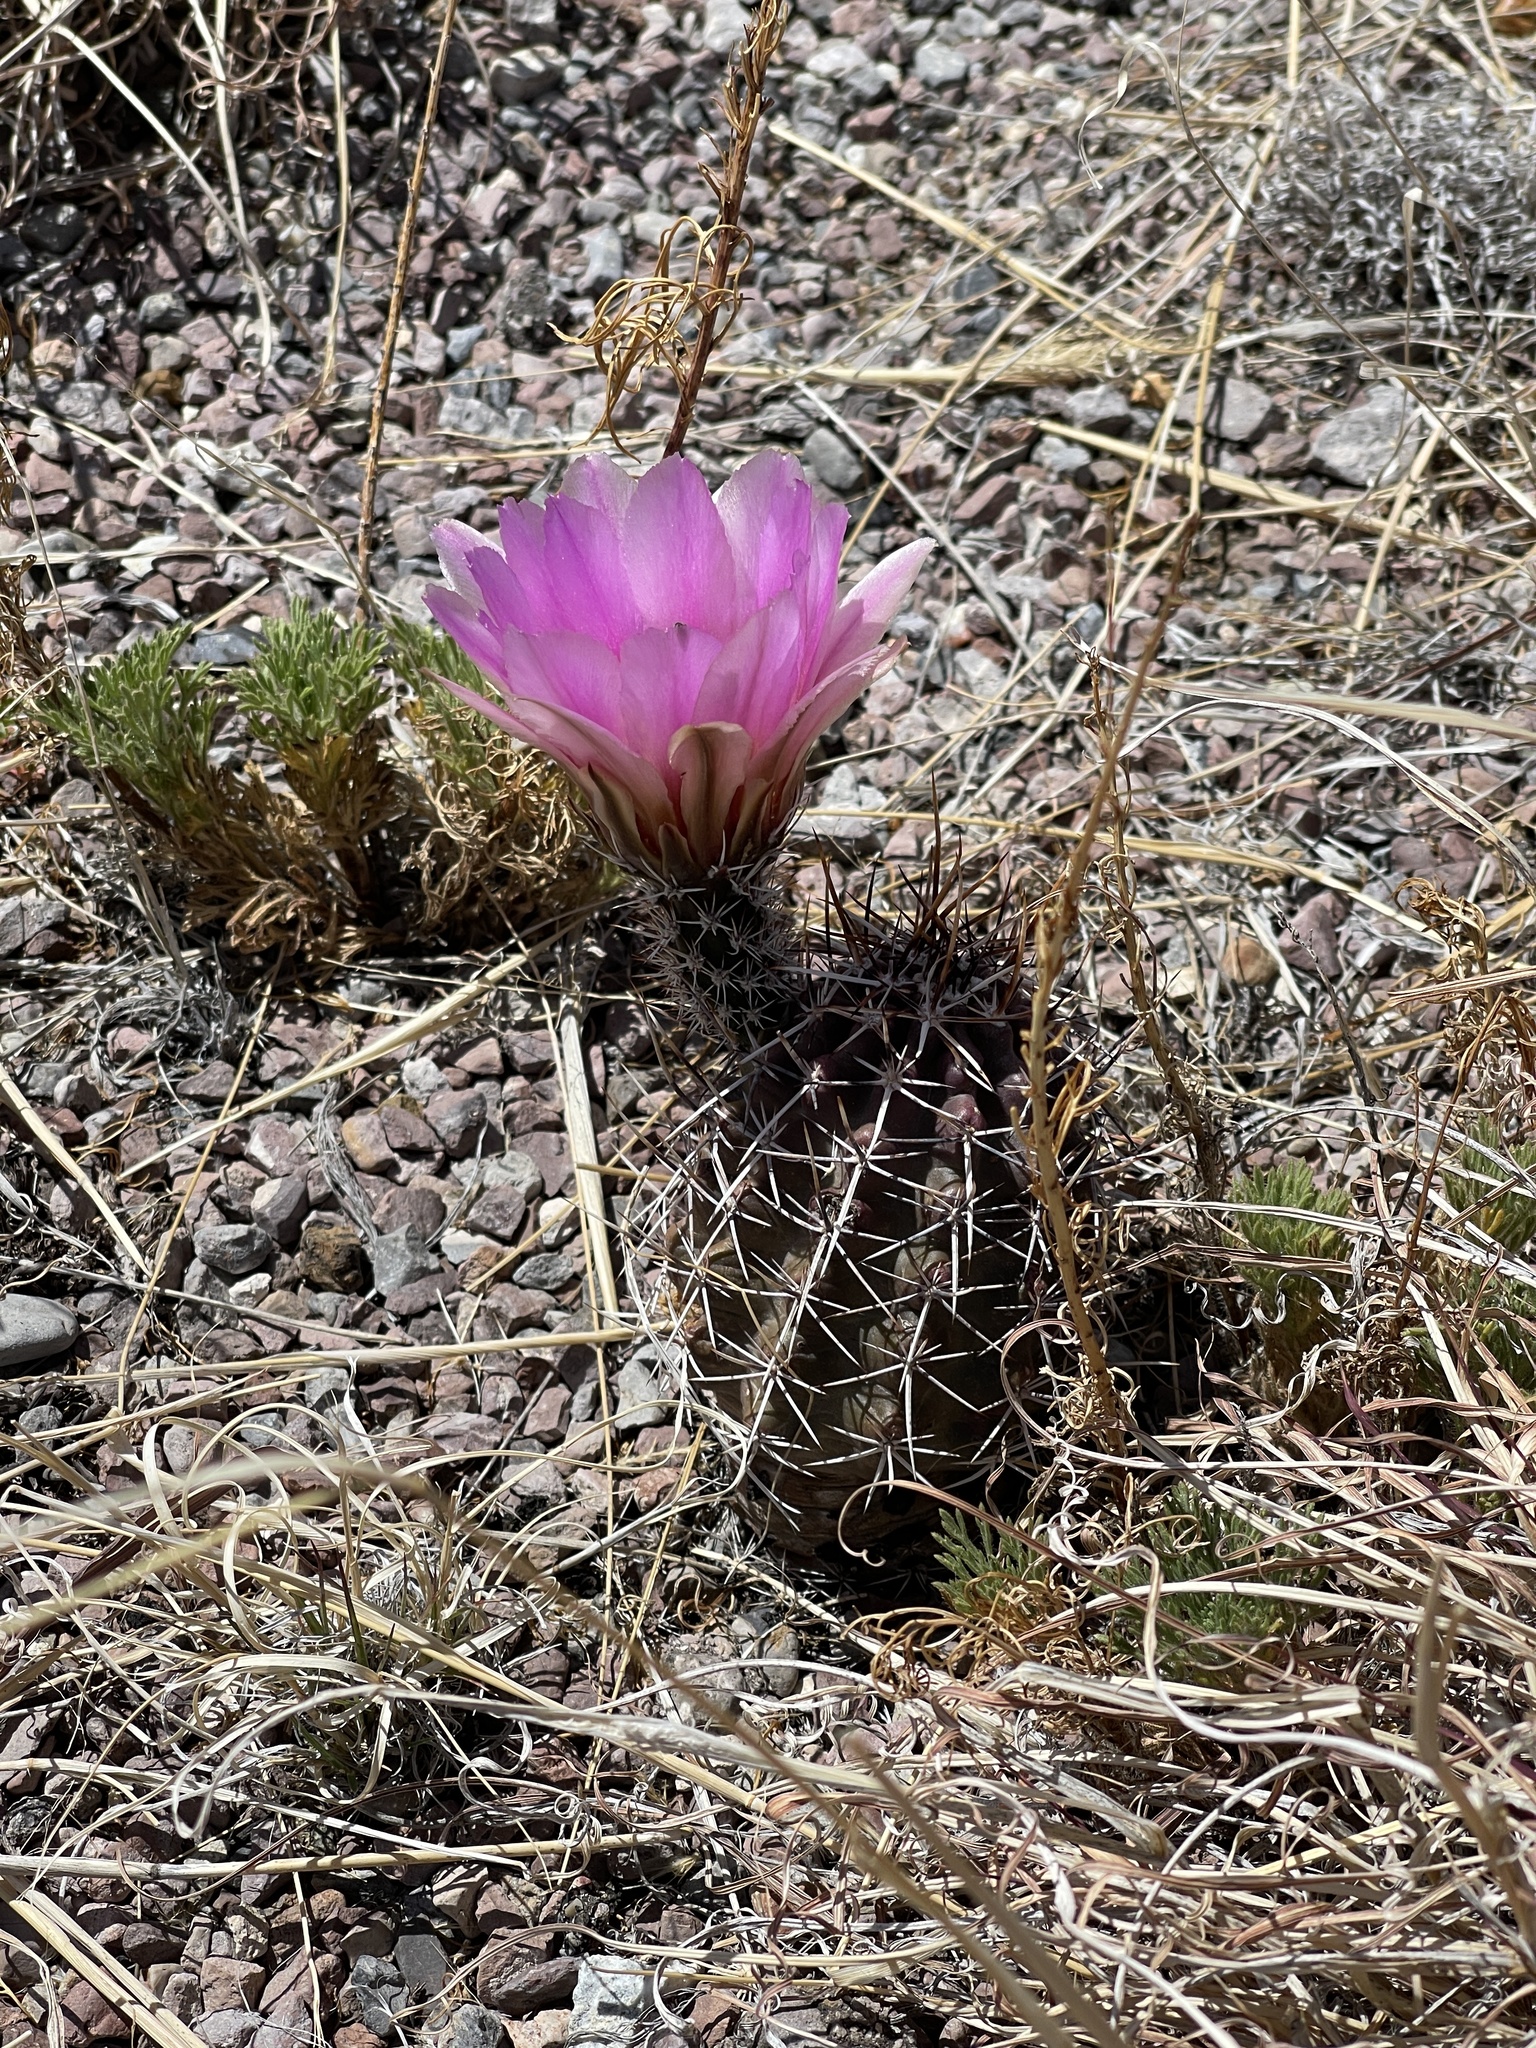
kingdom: Plantae
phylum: Tracheophyta
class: Magnoliopsida
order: Caryophyllales
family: Cactaceae
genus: Echinocereus
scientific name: Echinocereus fendleri
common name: Fendler's hedgehog cactus
